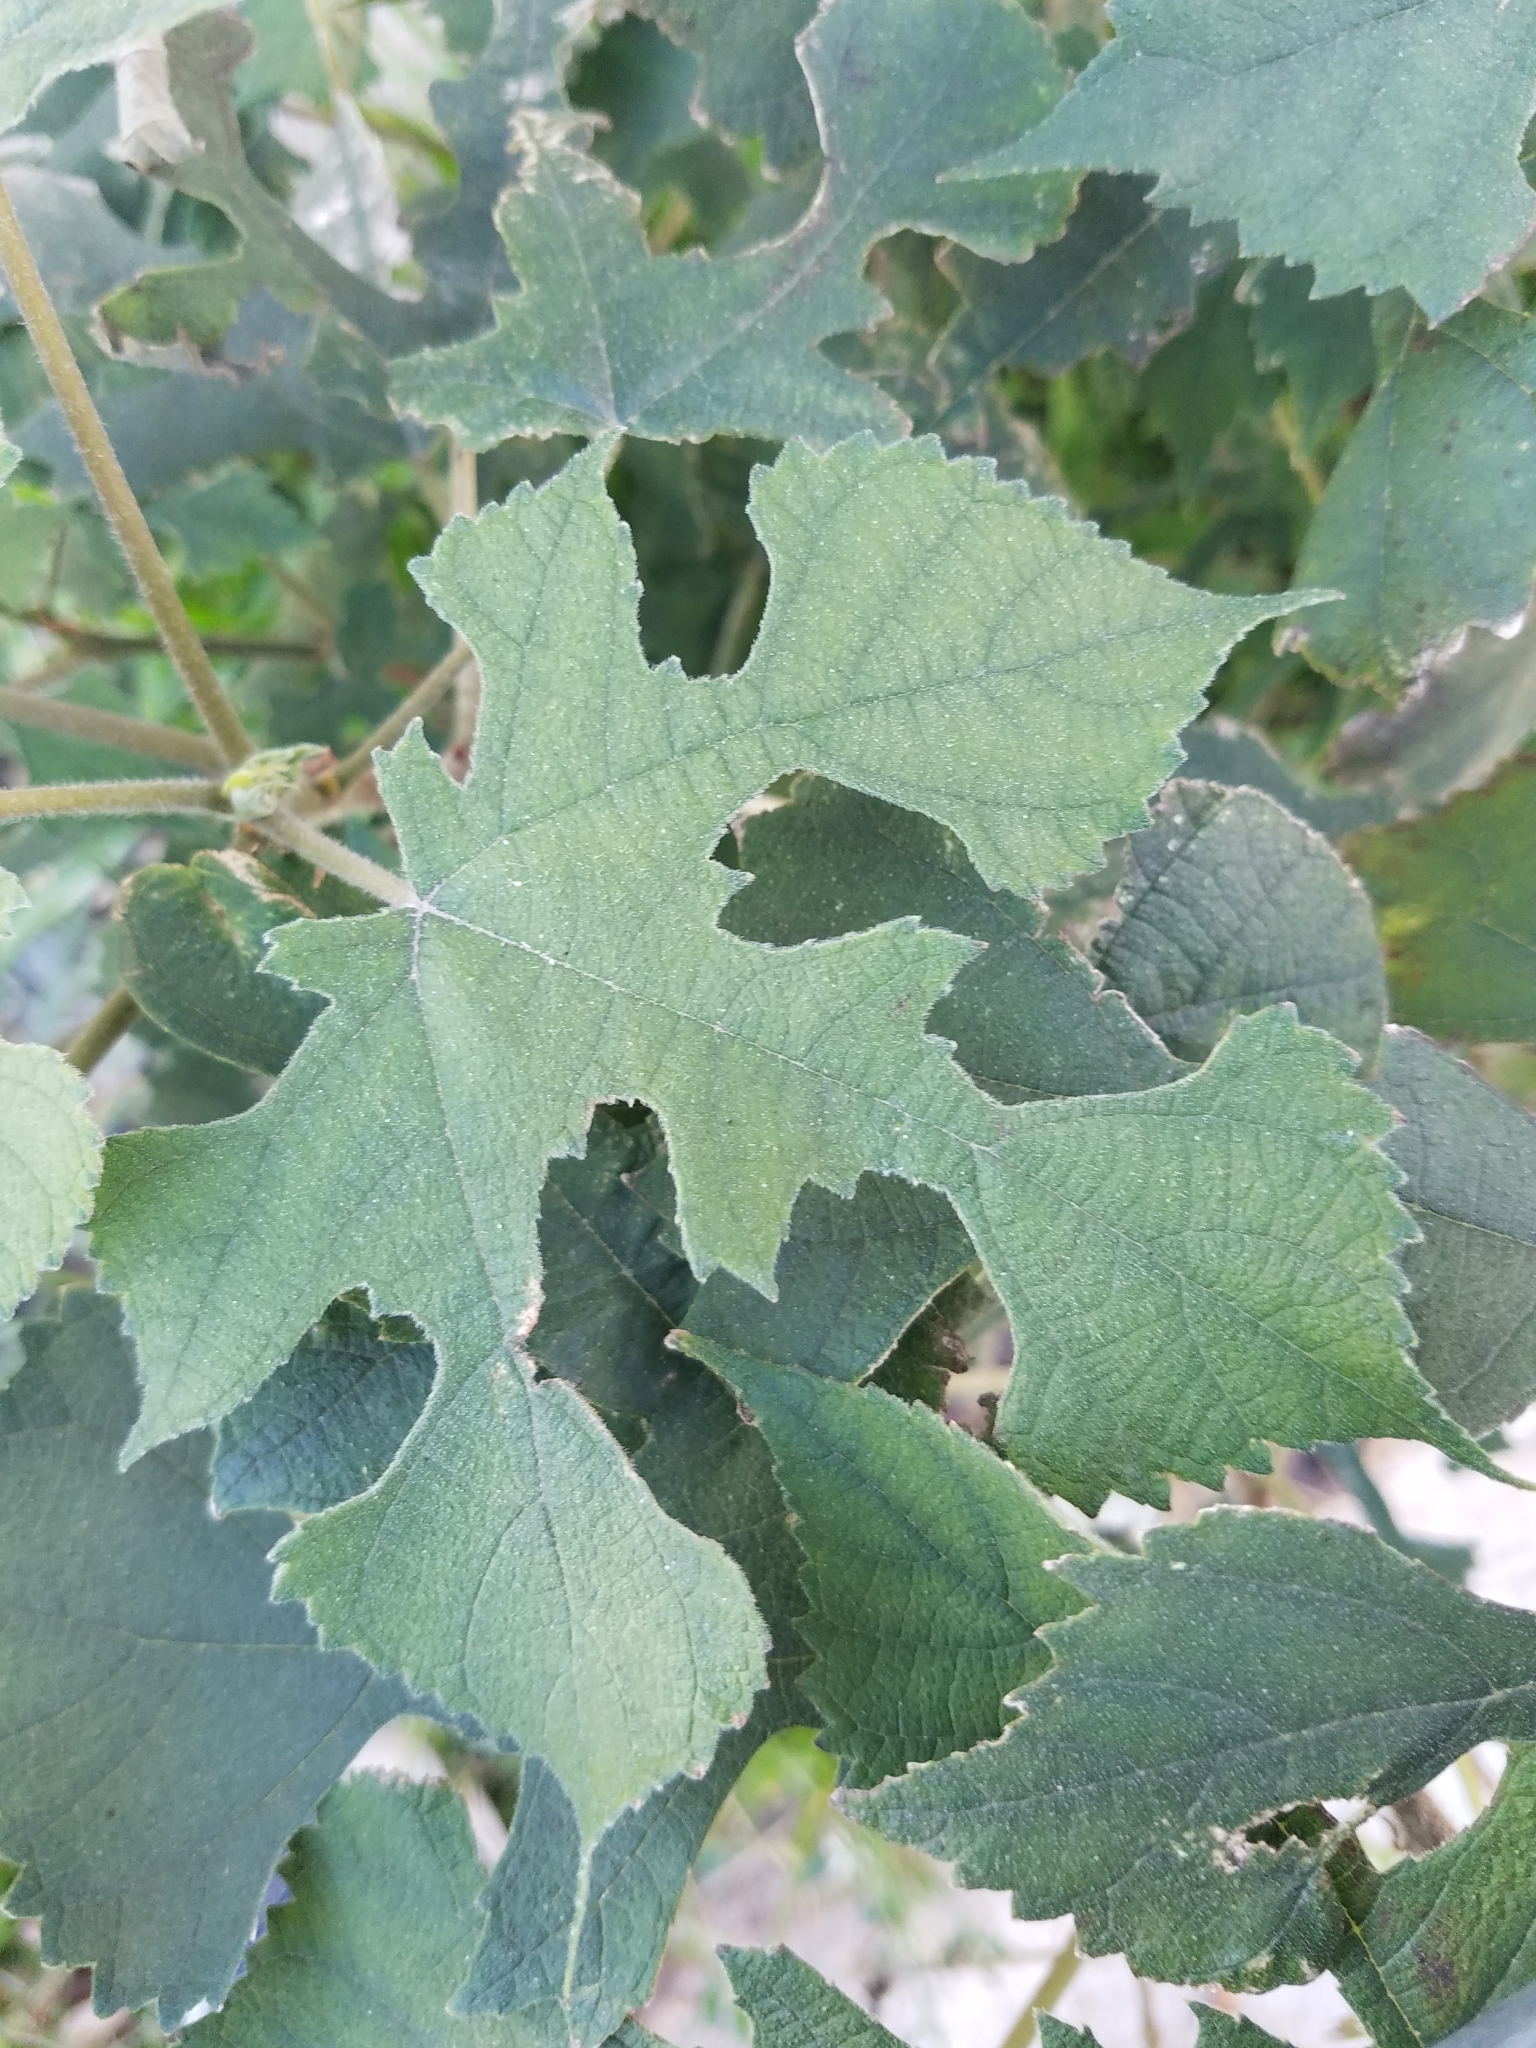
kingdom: Plantae
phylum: Tracheophyta
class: Magnoliopsida
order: Rosales
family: Moraceae
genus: Broussonetia
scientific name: Broussonetia papyrifera
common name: Paper mulberry
